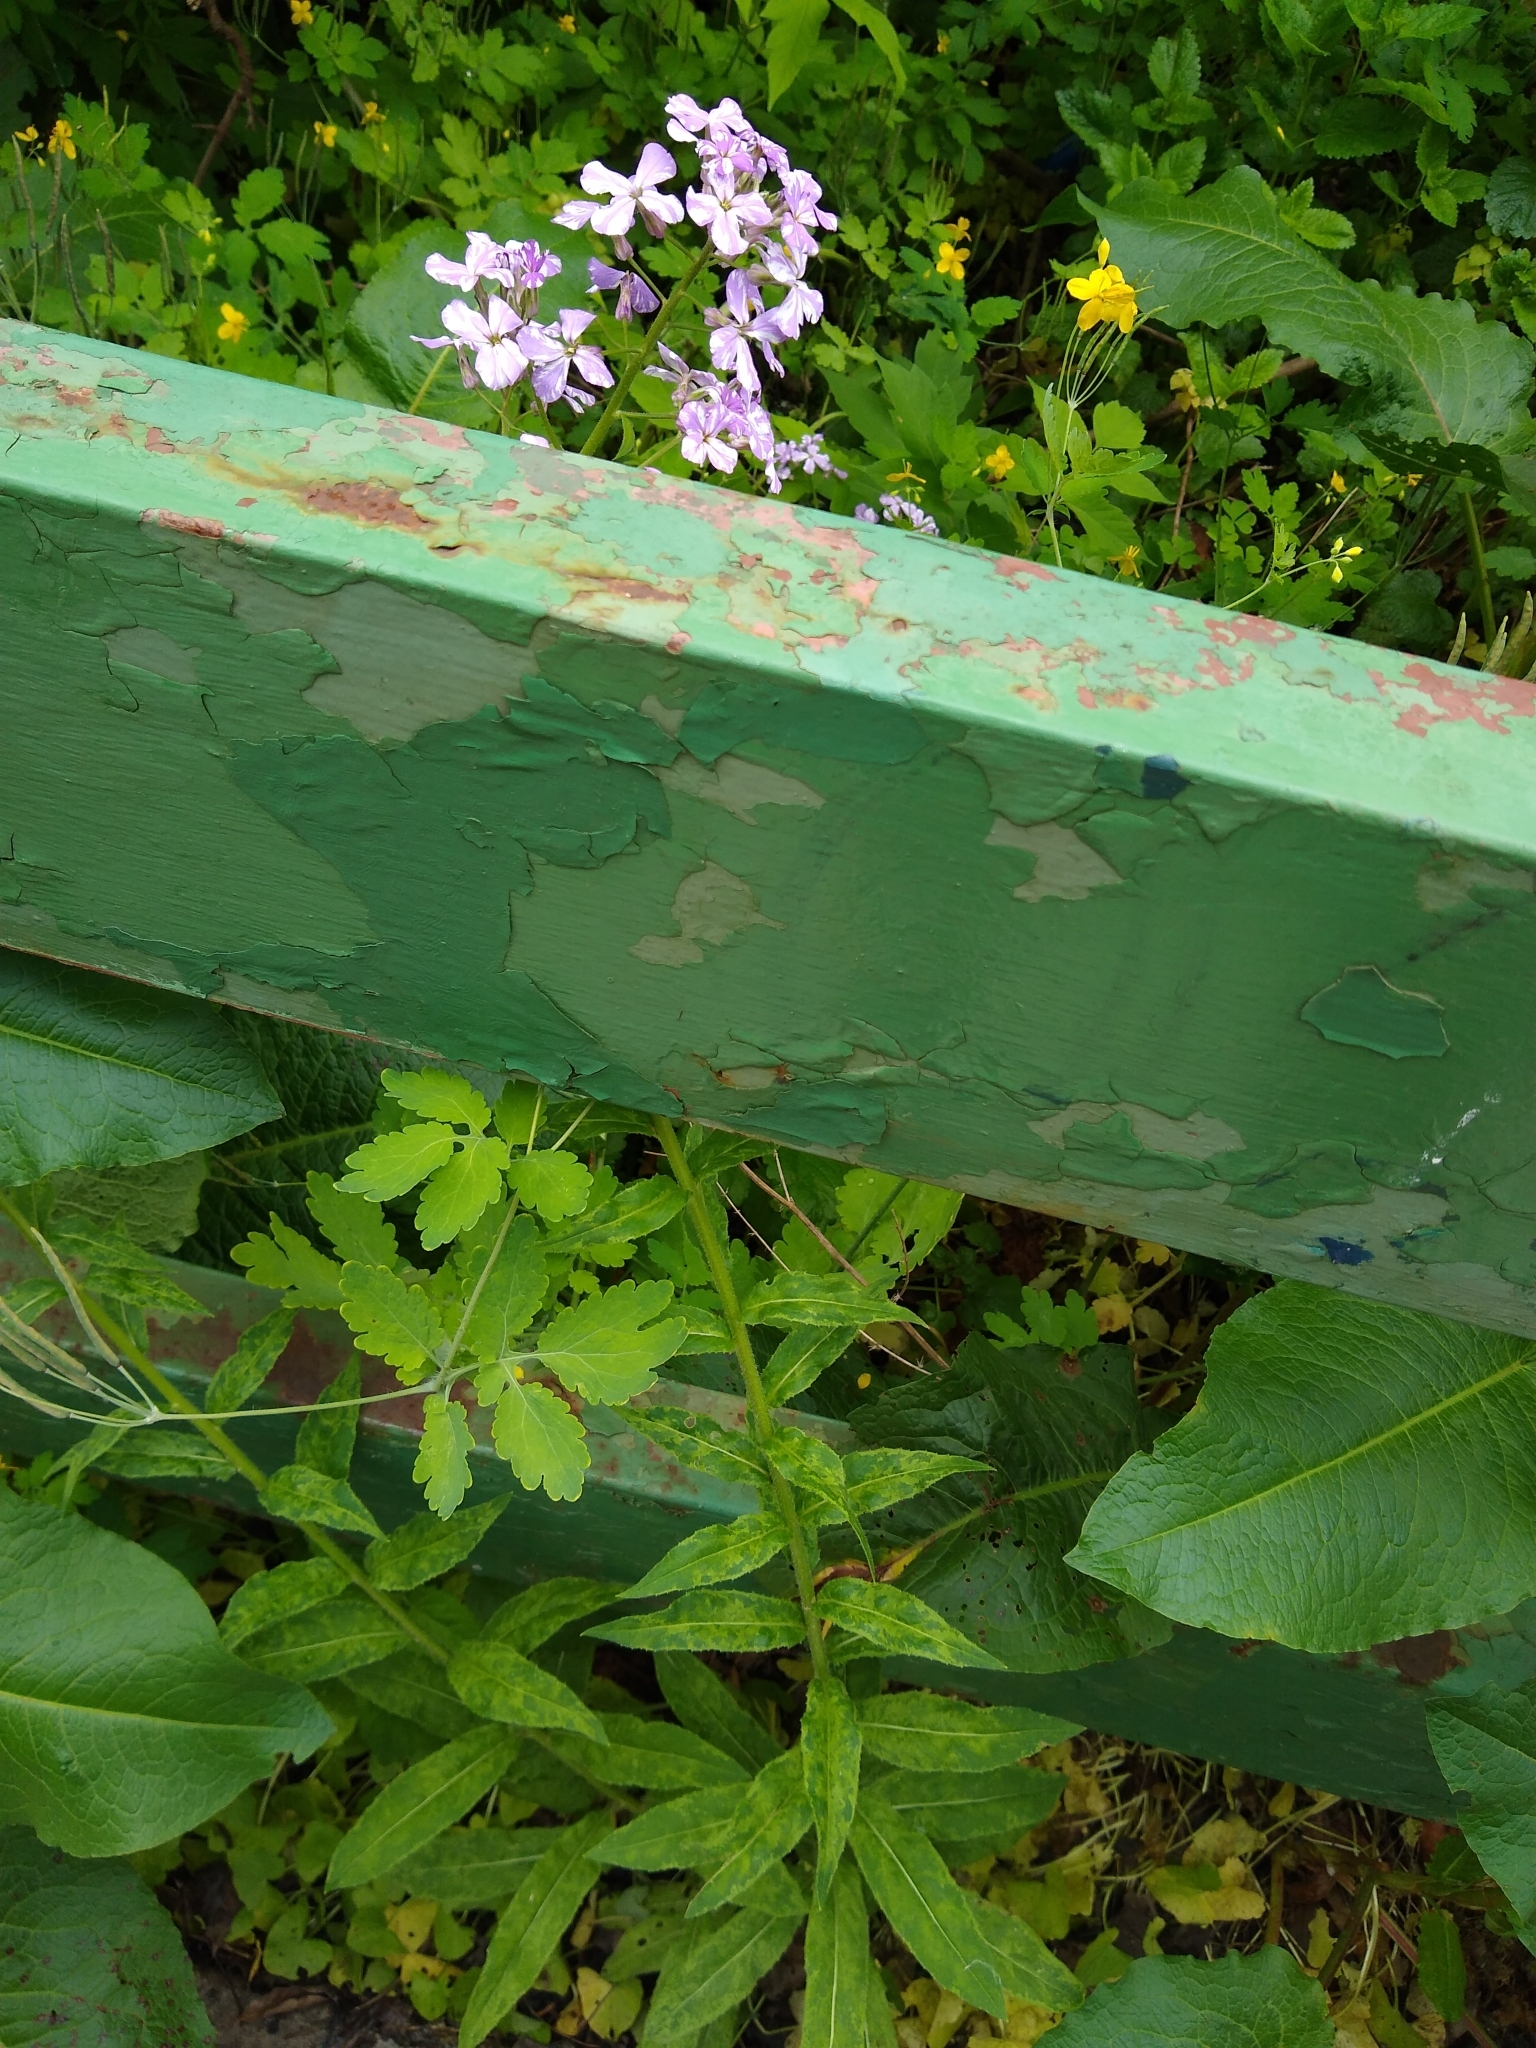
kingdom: Plantae
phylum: Tracheophyta
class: Magnoliopsida
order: Brassicales
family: Brassicaceae
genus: Hesperis
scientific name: Hesperis matronalis
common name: Dame's-violet
